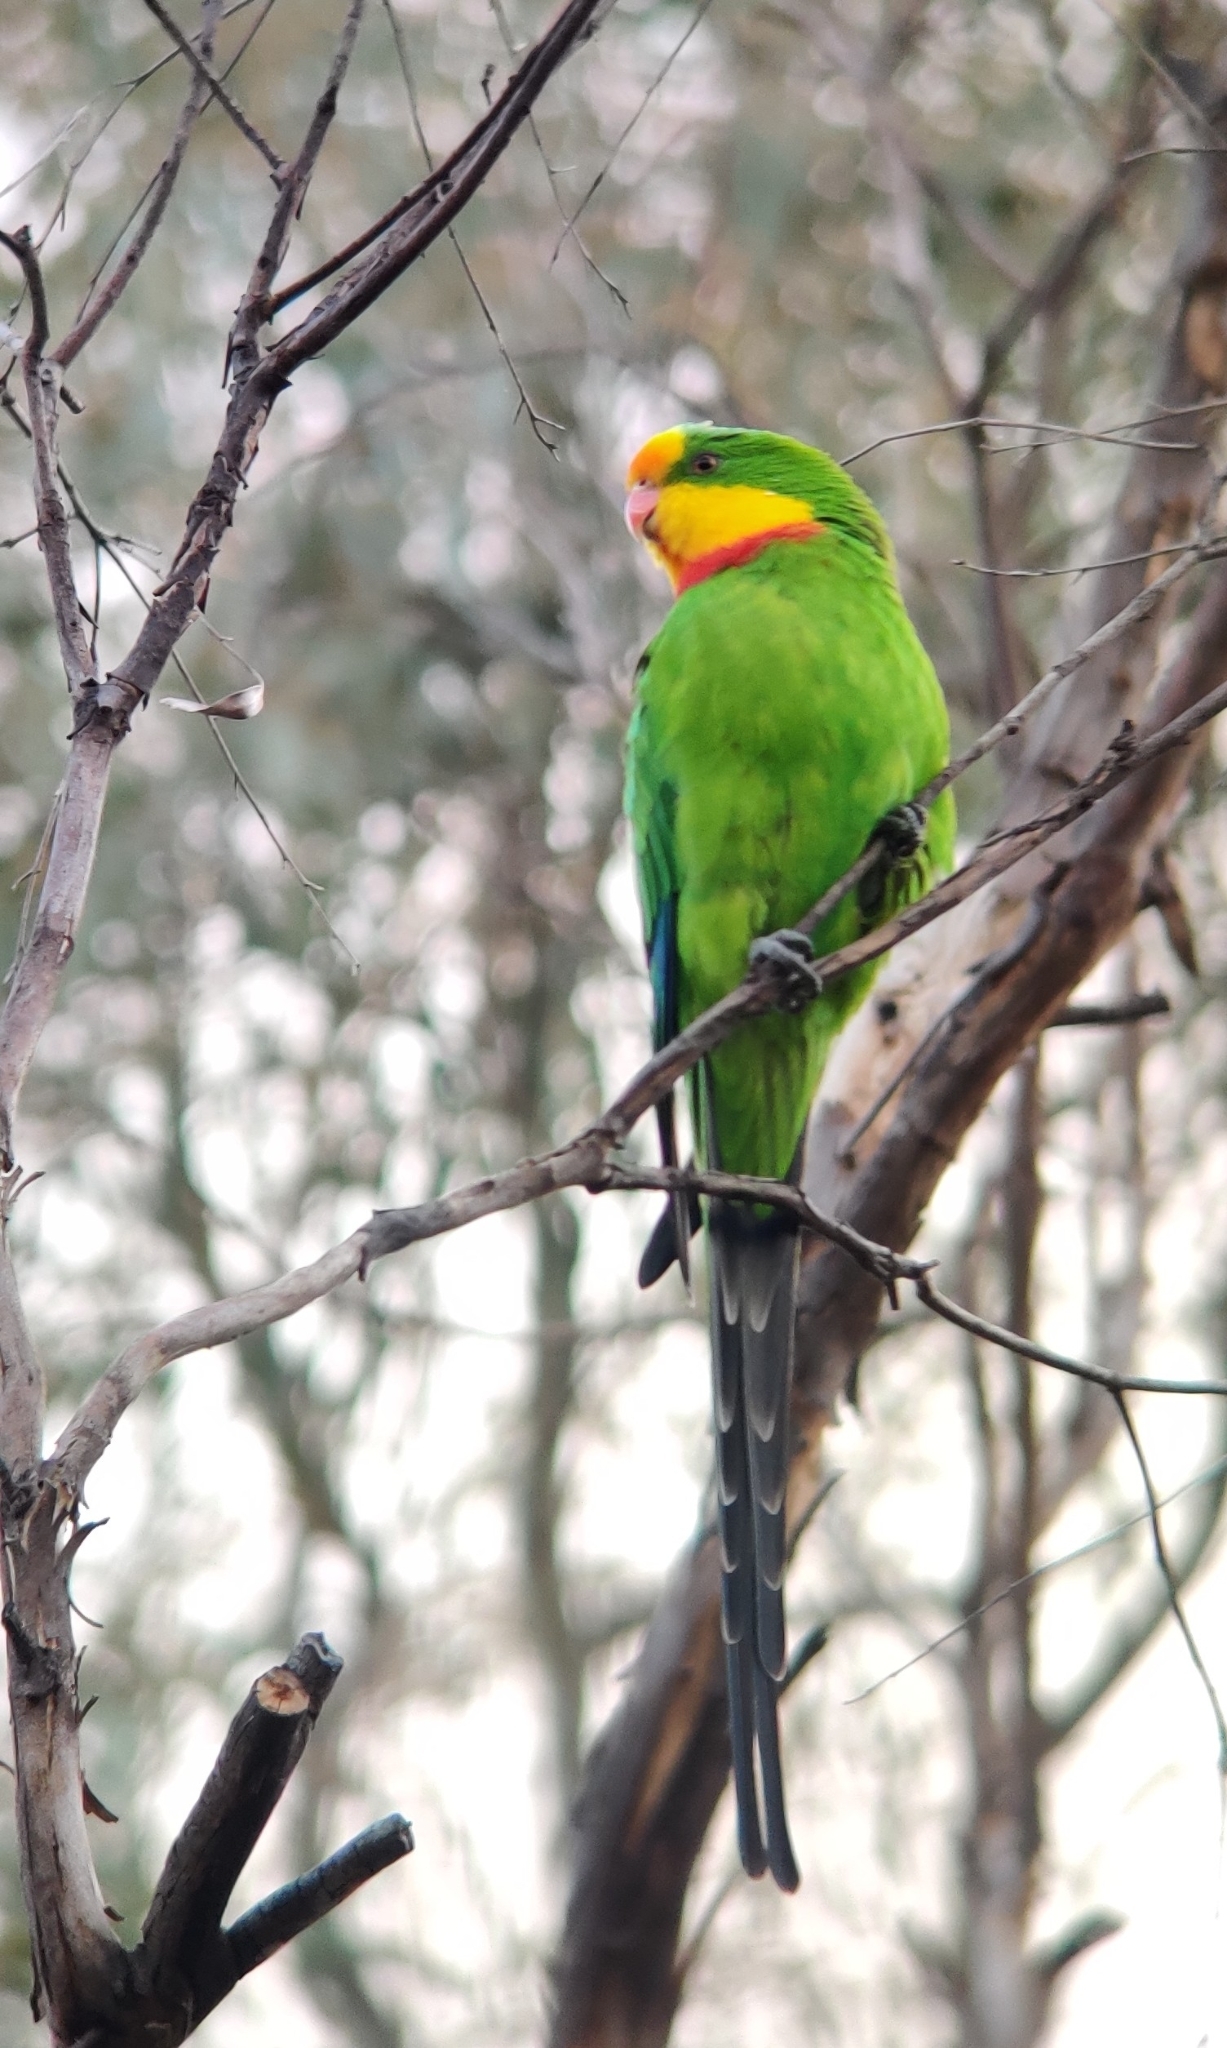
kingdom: Animalia
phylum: Chordata
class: Aves
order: Psittaciformes
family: Psittacidae
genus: Polytelis
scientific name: Polytelis swainsonii
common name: Superb parrot
